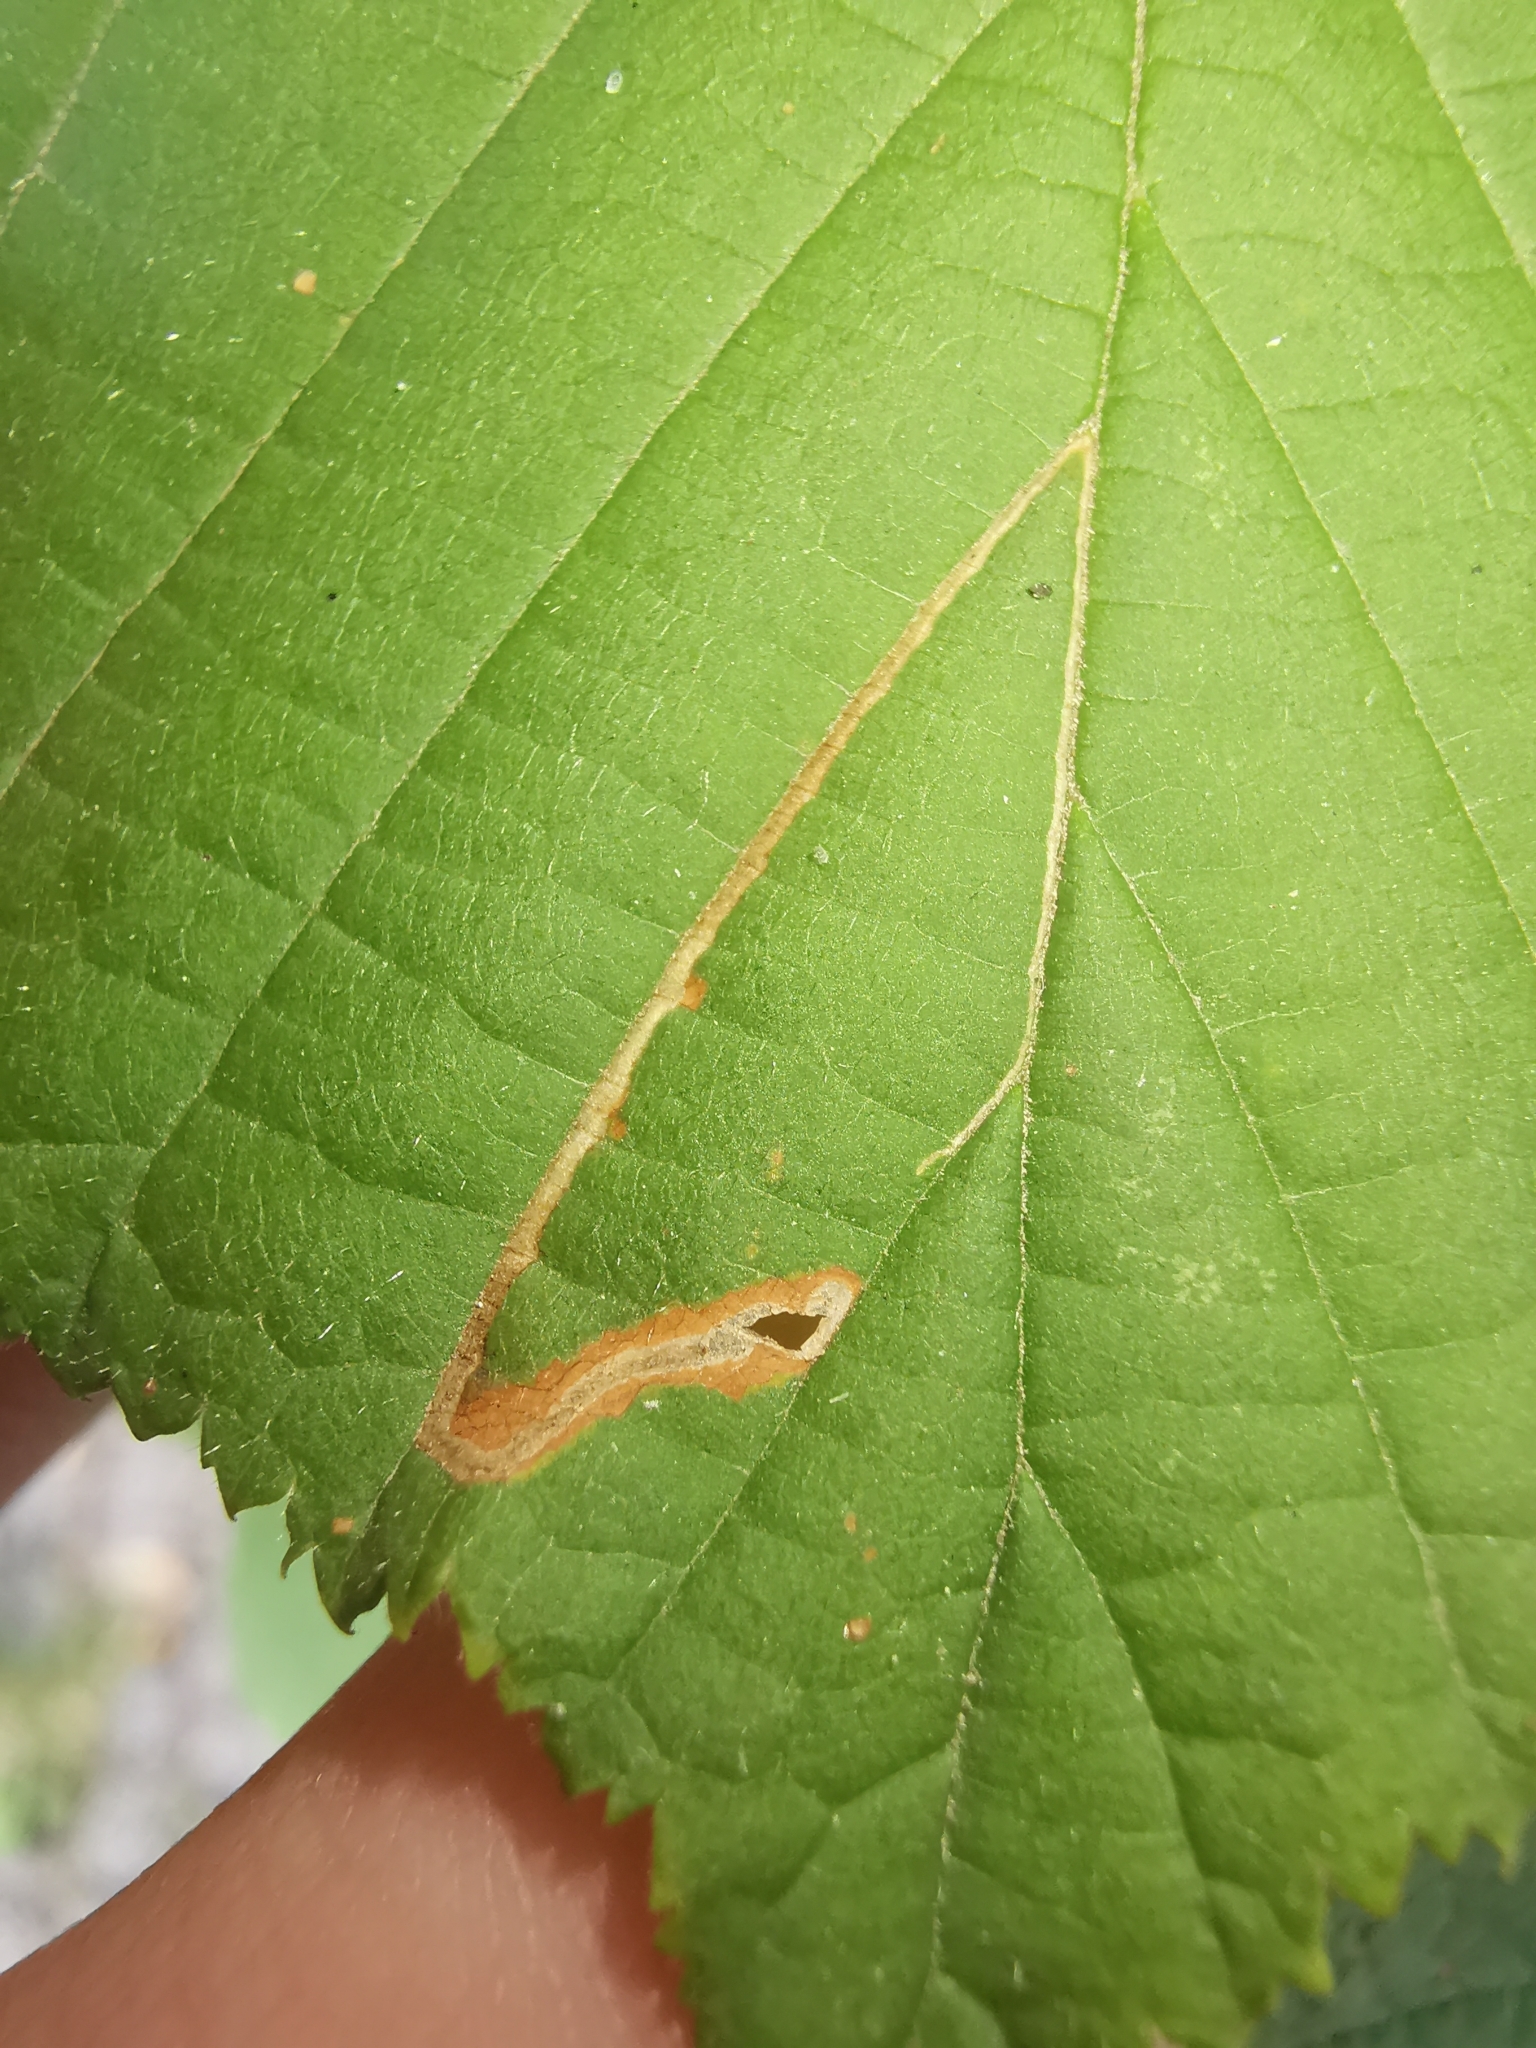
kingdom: Animalia
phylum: Arthropoda
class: Insecta
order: Lepidoptera
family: Nepticulidae
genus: Stigmella
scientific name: Stigmella microtheriella
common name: Nut-tree pigmy
